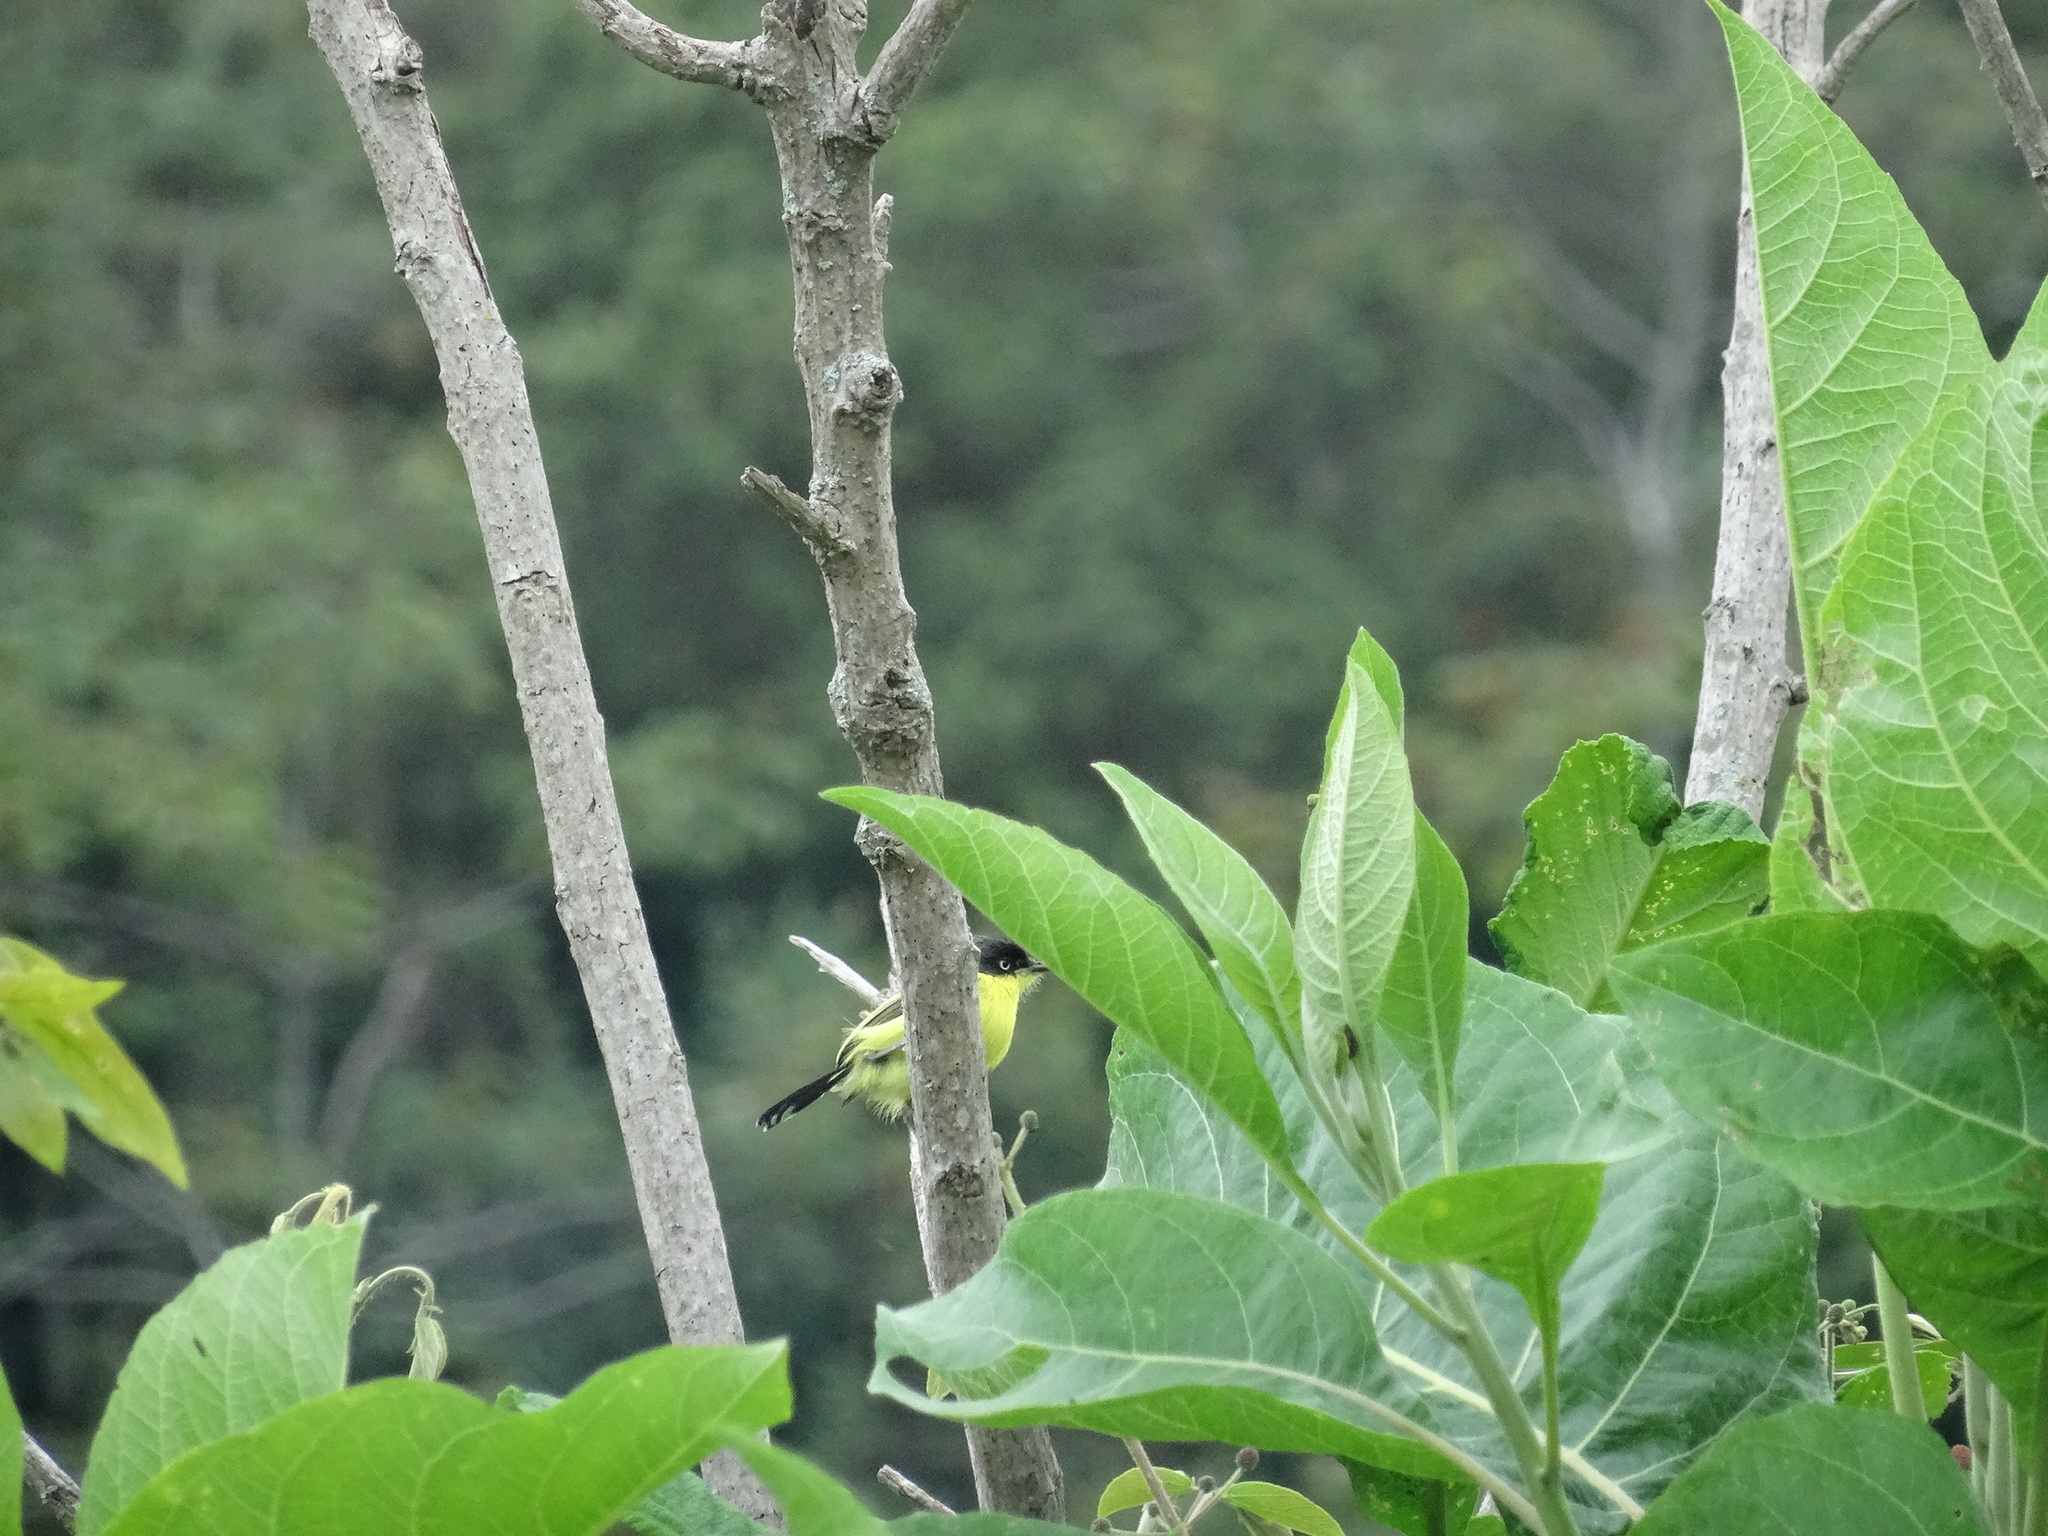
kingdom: Animalia
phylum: Chordata
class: Aves
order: Passeriformes
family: Tyrannidae
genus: Todirostrum
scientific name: Todirostrum cinereum
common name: Common tody-flycatcher
